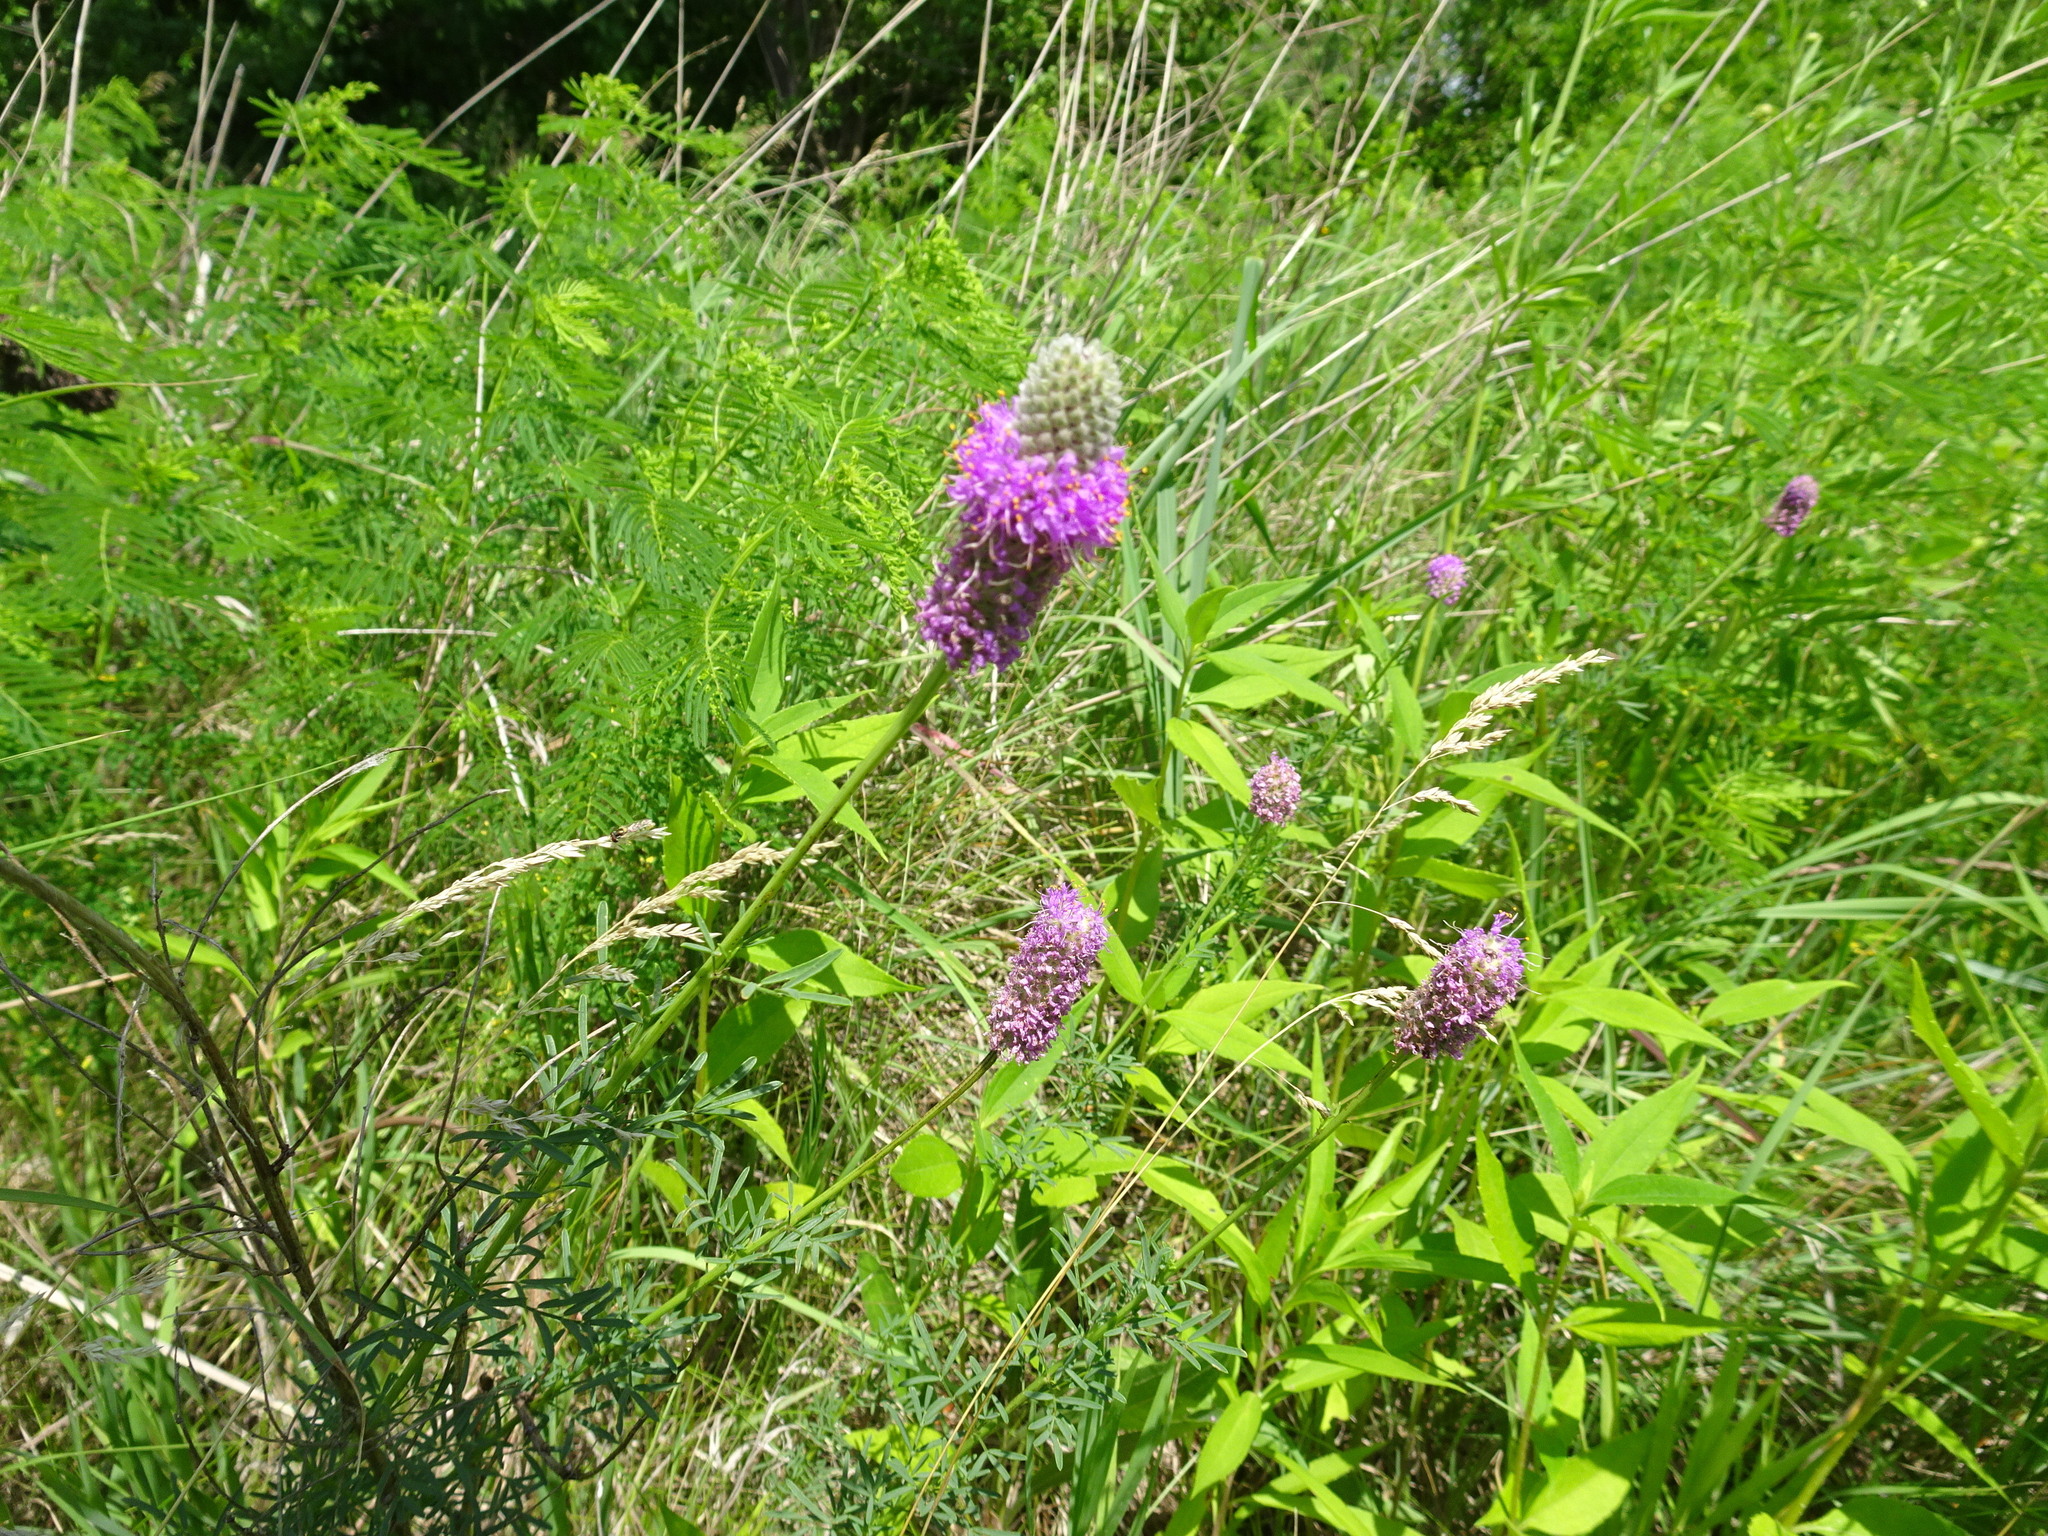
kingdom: Plantae
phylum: Tracheophyta
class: Magnoliopsida
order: Fabales
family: Fabaceae
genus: Dalea
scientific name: Dalea purpurea
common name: Purple prairie-clover
